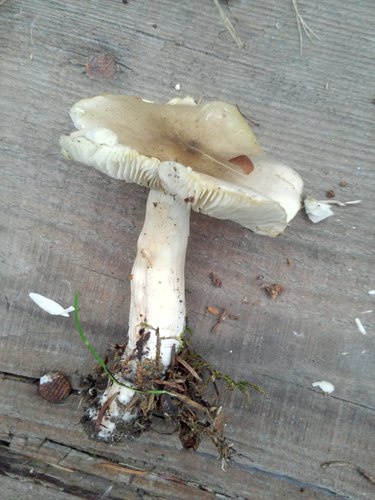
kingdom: Fungi
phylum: Basidiomycota
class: Agaricomycetes
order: Agaricales
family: Tricholomataceae
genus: Tricholoma
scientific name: Tricholoma
